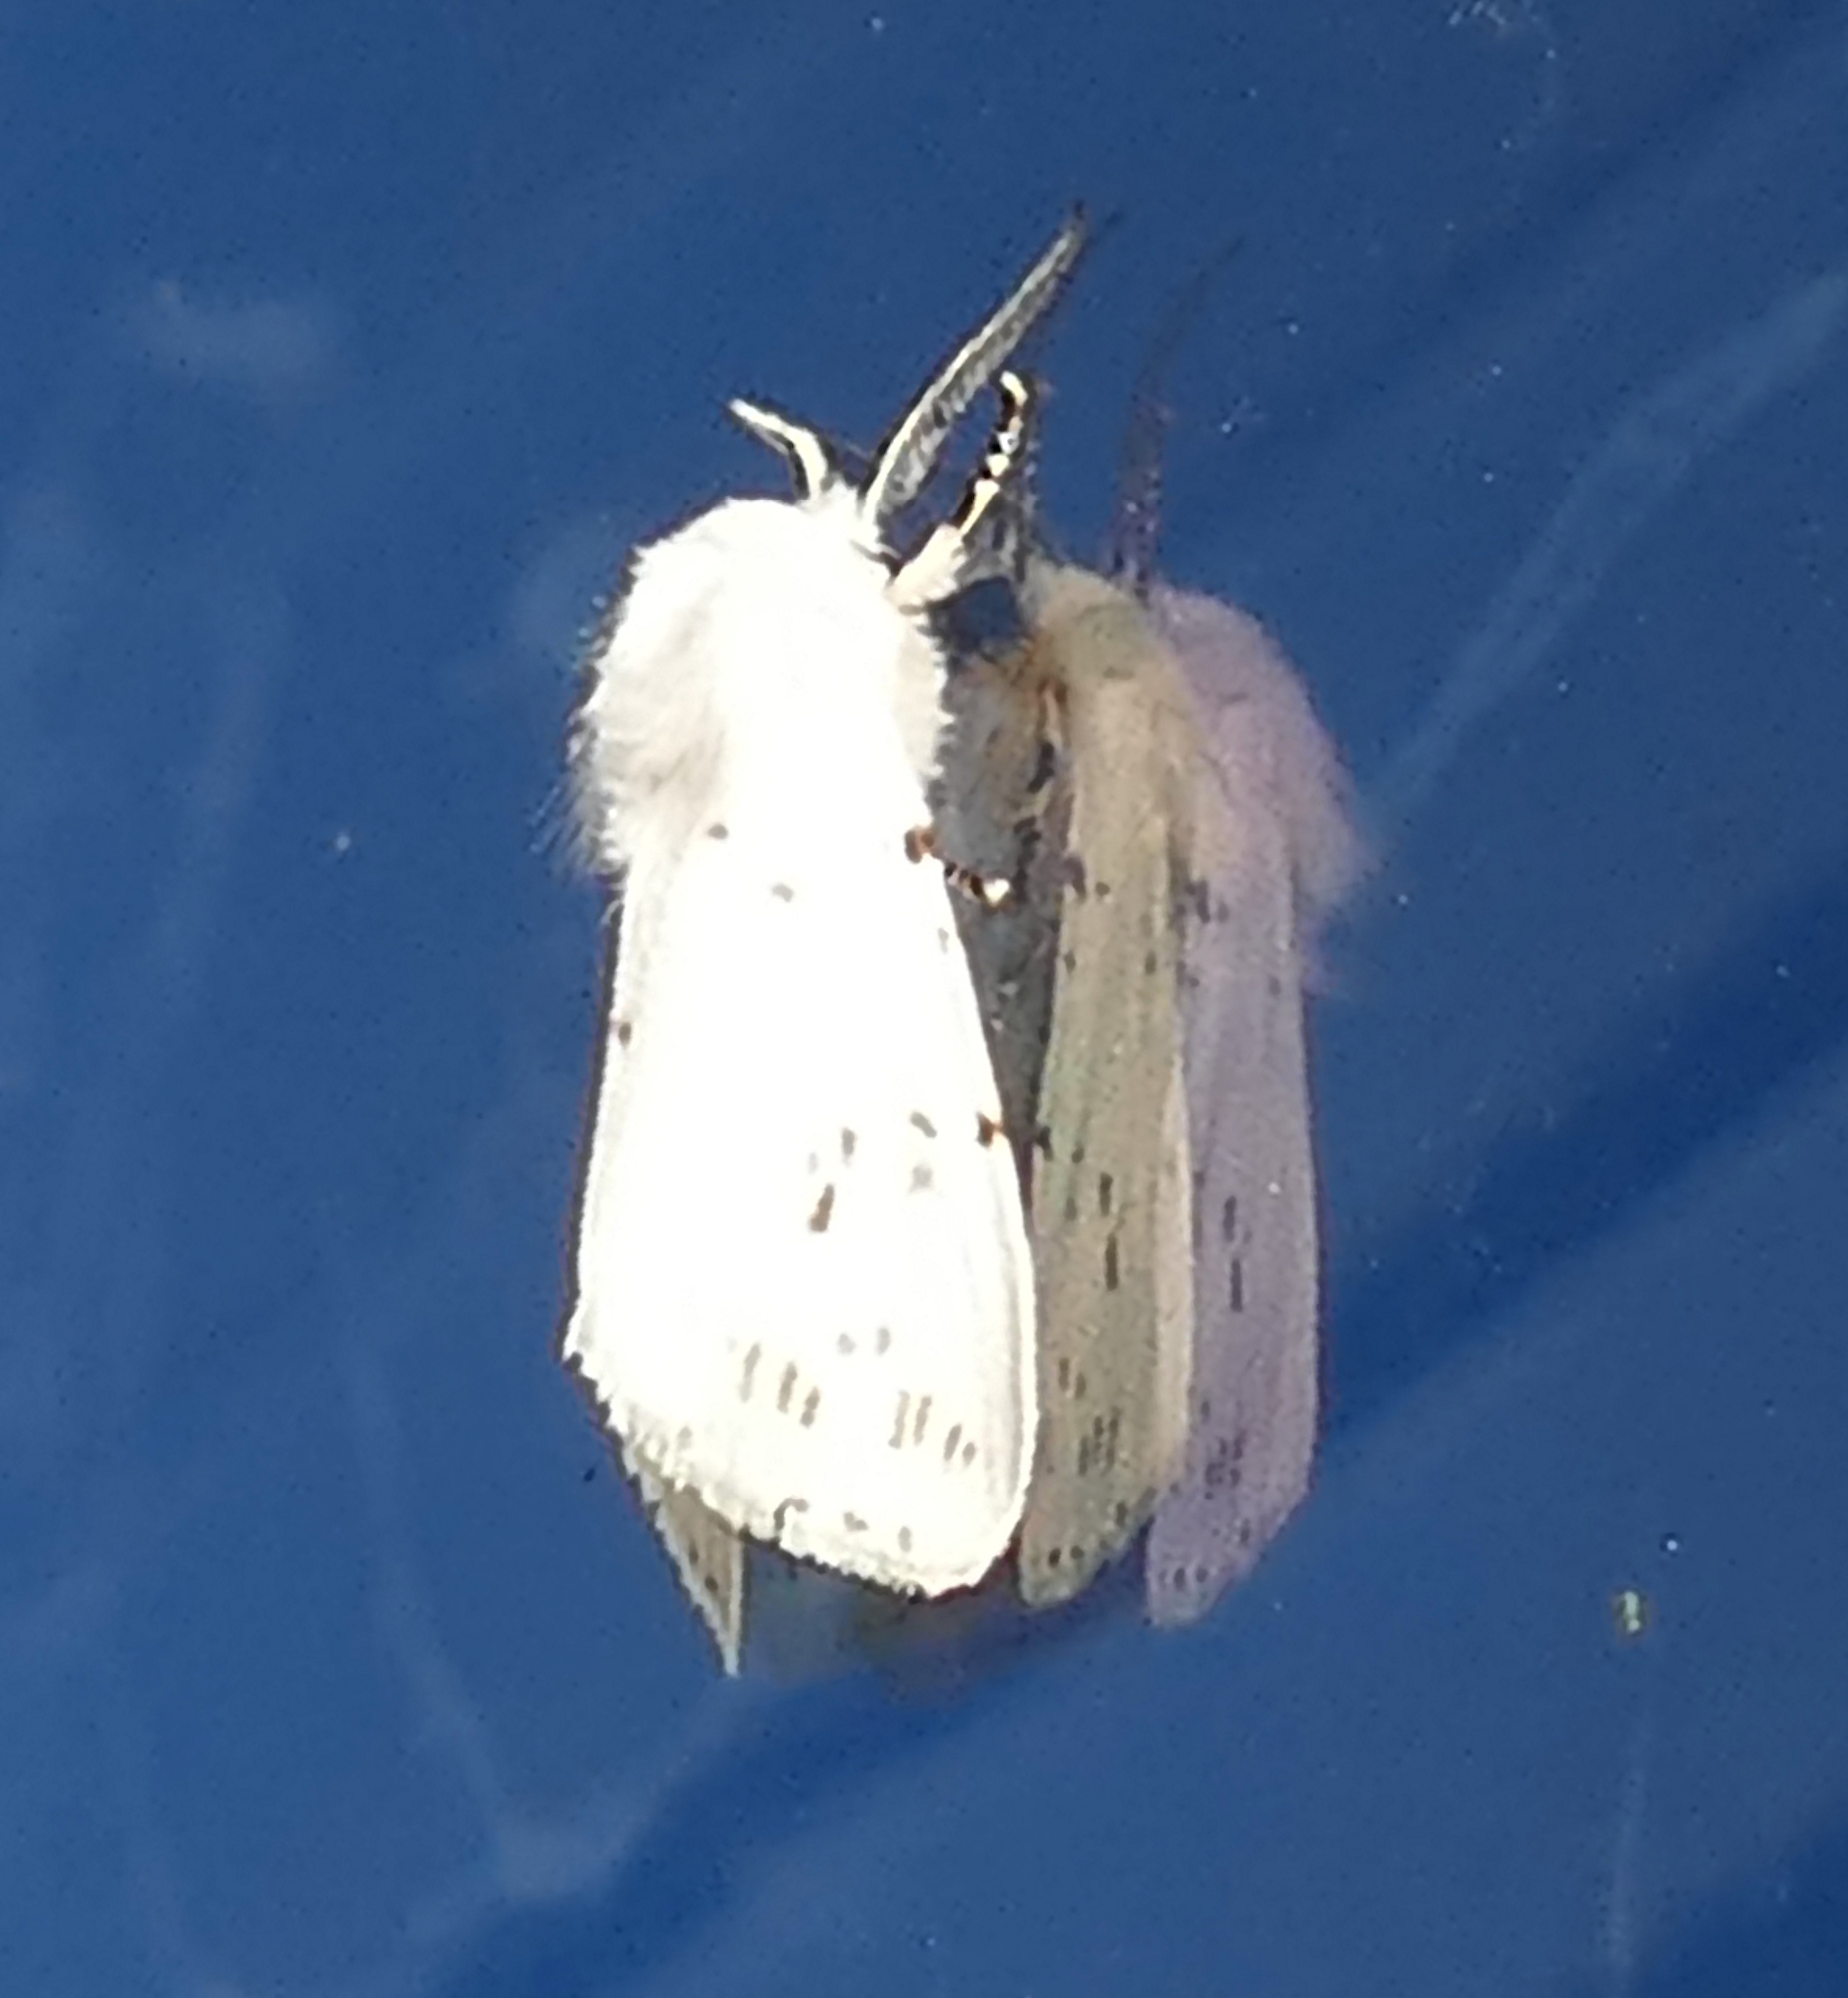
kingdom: Animalia
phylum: Arthropoda
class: Insecta
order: Lepidoptera
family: Erebidae
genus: Hyphantria
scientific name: Hyphantria cunea
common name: American white moth
